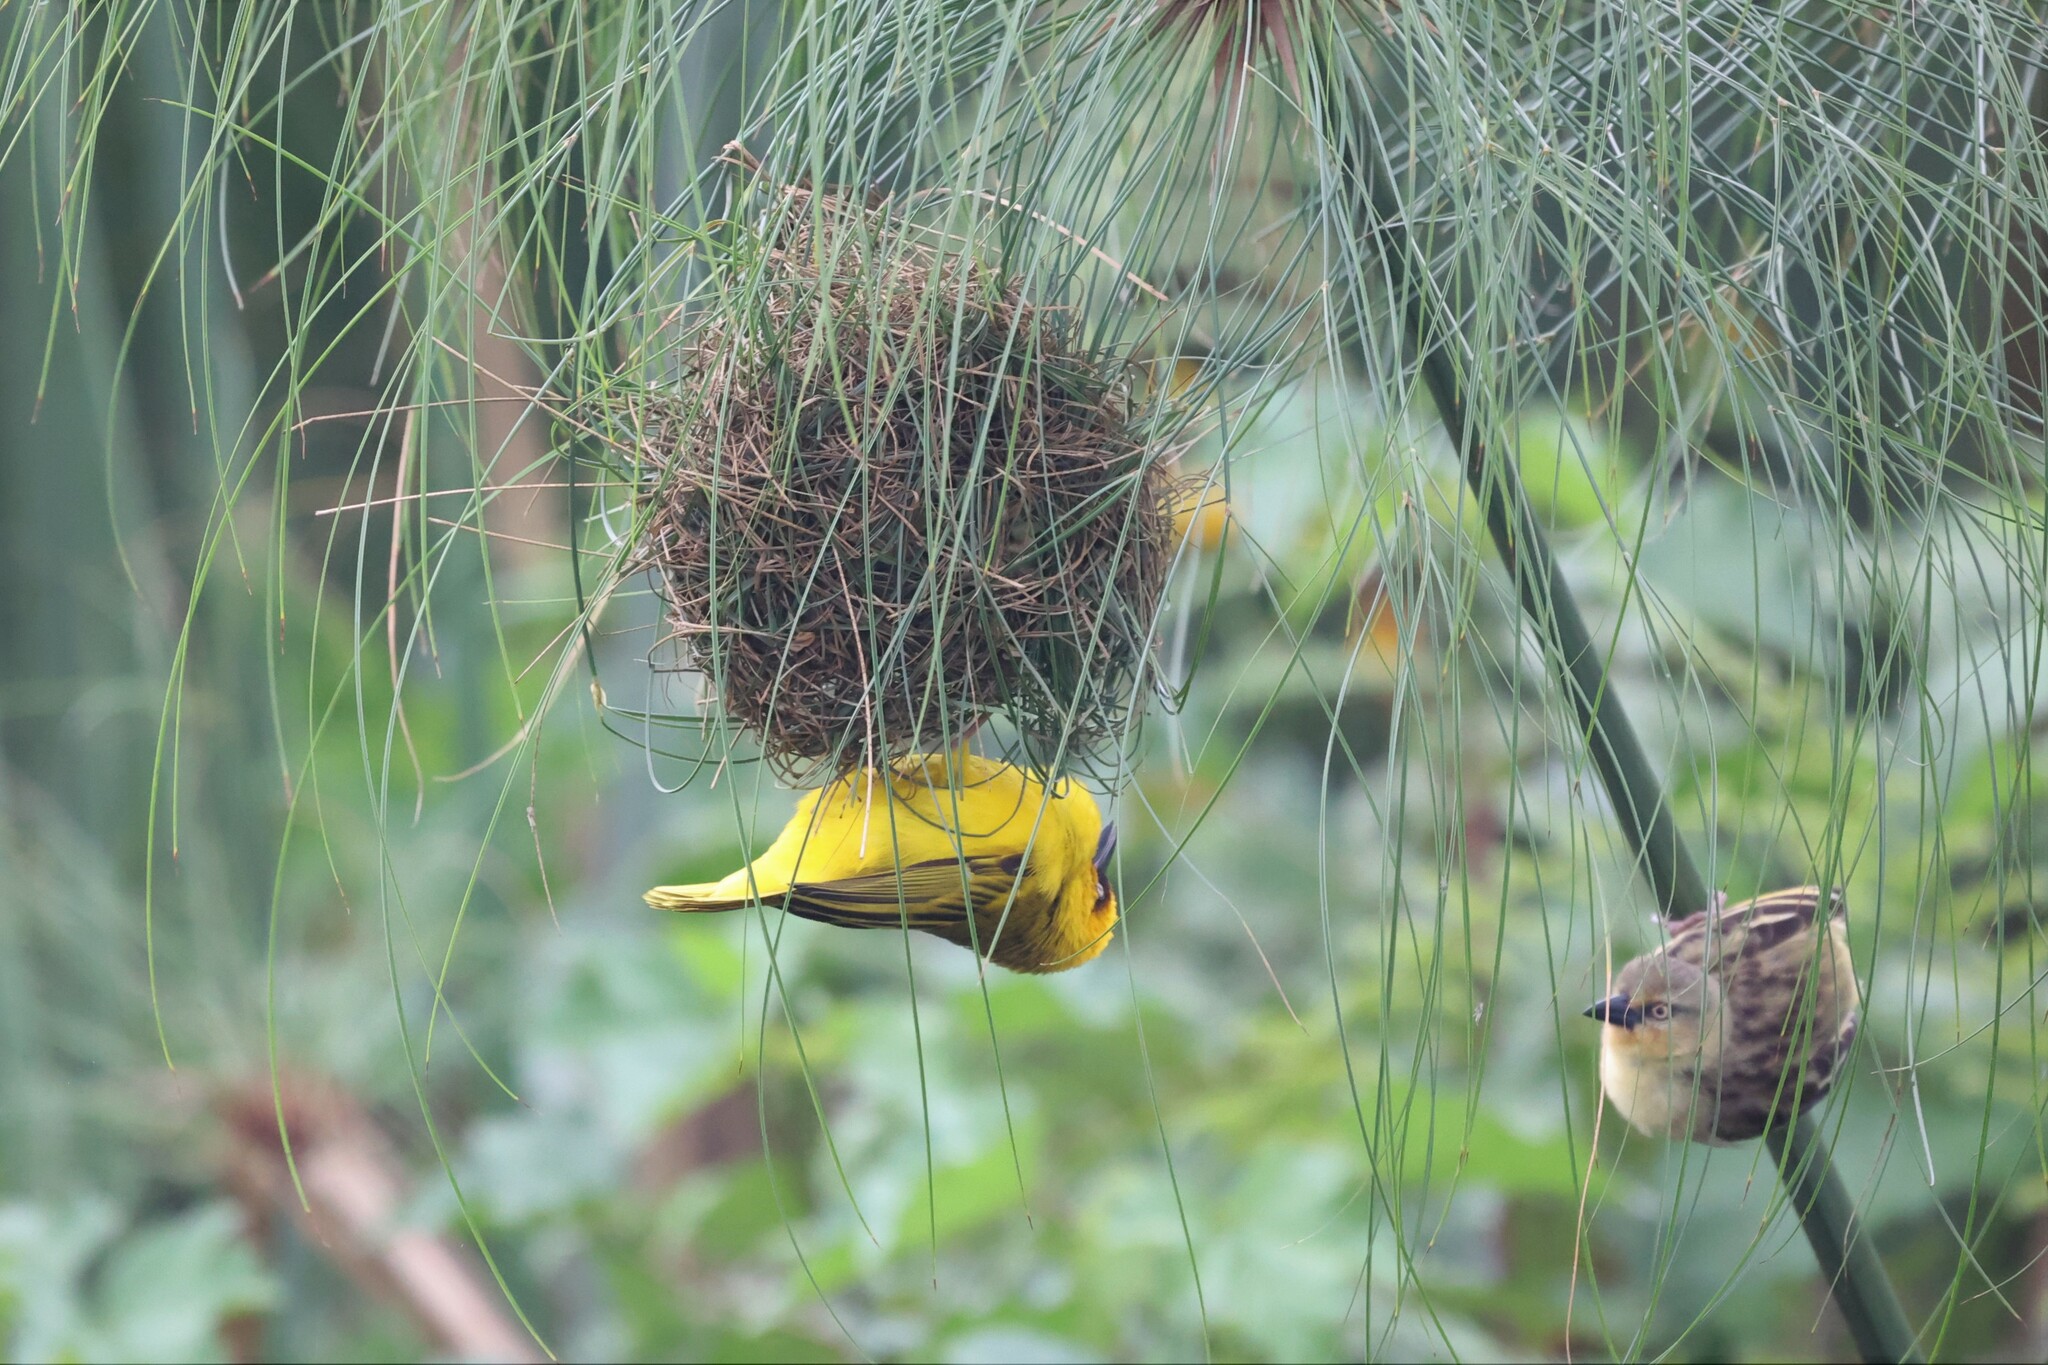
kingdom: Animalia
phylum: Chordata
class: Aves
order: Passeriformes
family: Ploceidae
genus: Ploceus
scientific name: Ploceus castanops
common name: Northern brown-throated weaver
